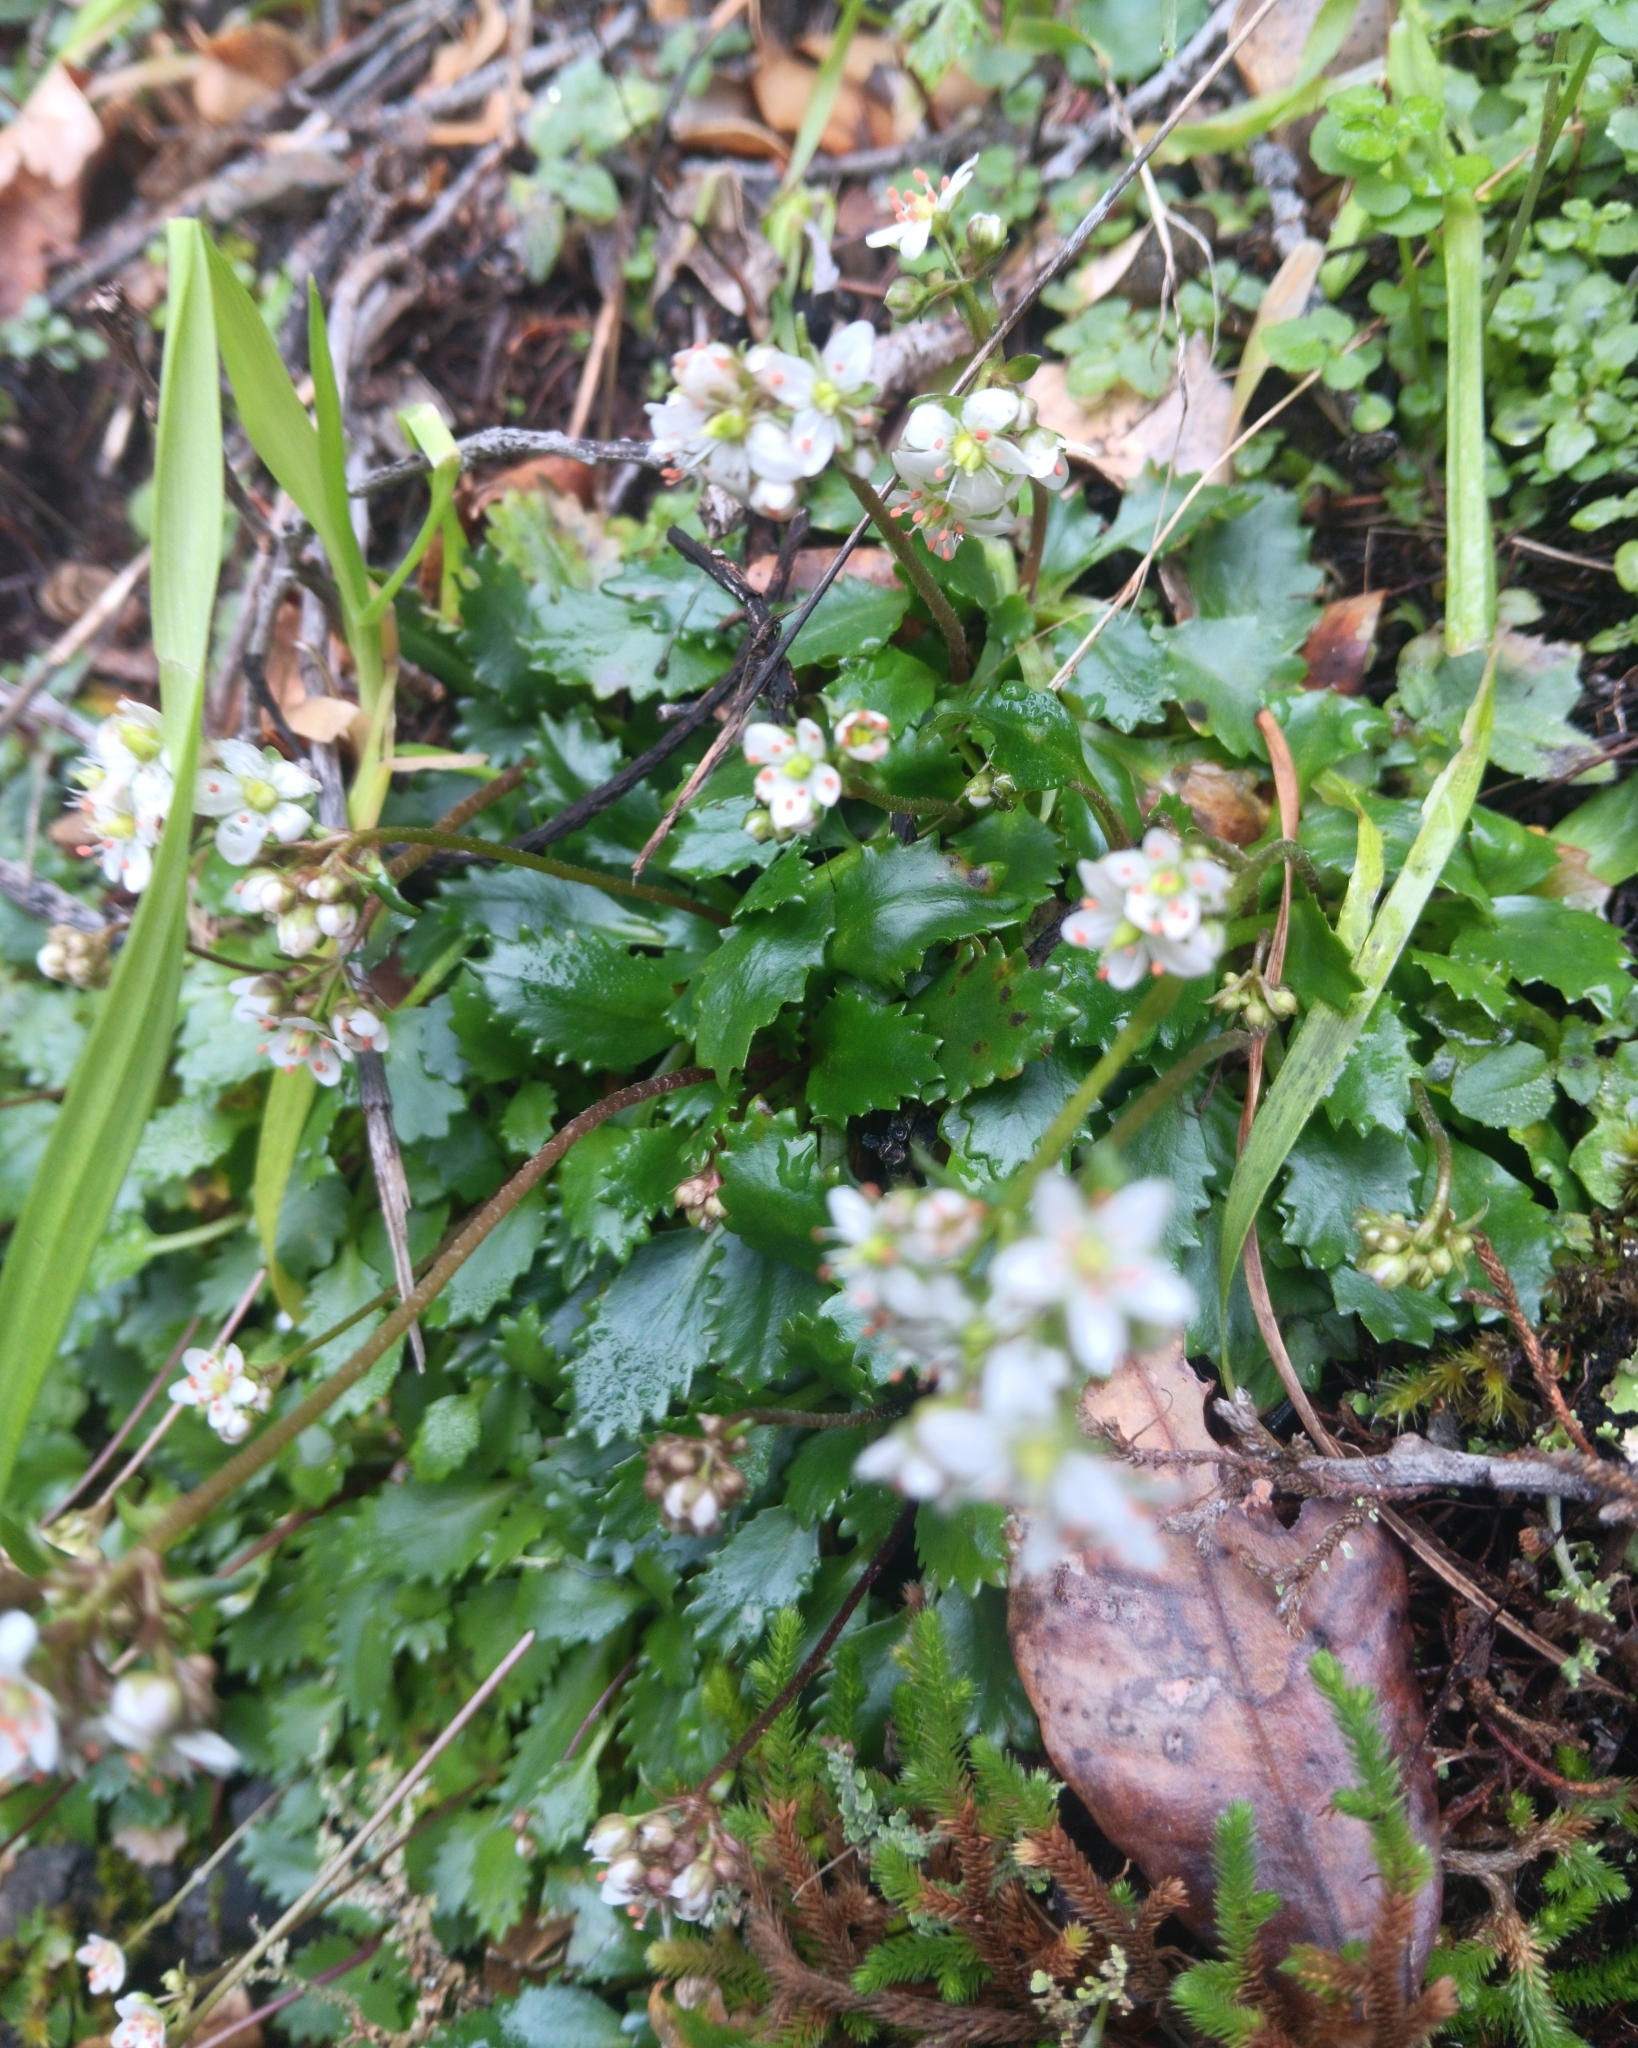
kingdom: Plantae
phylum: Tracheophyta
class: Magnoliopsida
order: Saxifragales
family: Saxifragaceae
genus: Micranthes
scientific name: Micranthes howellii
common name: Howell's saxifrage
